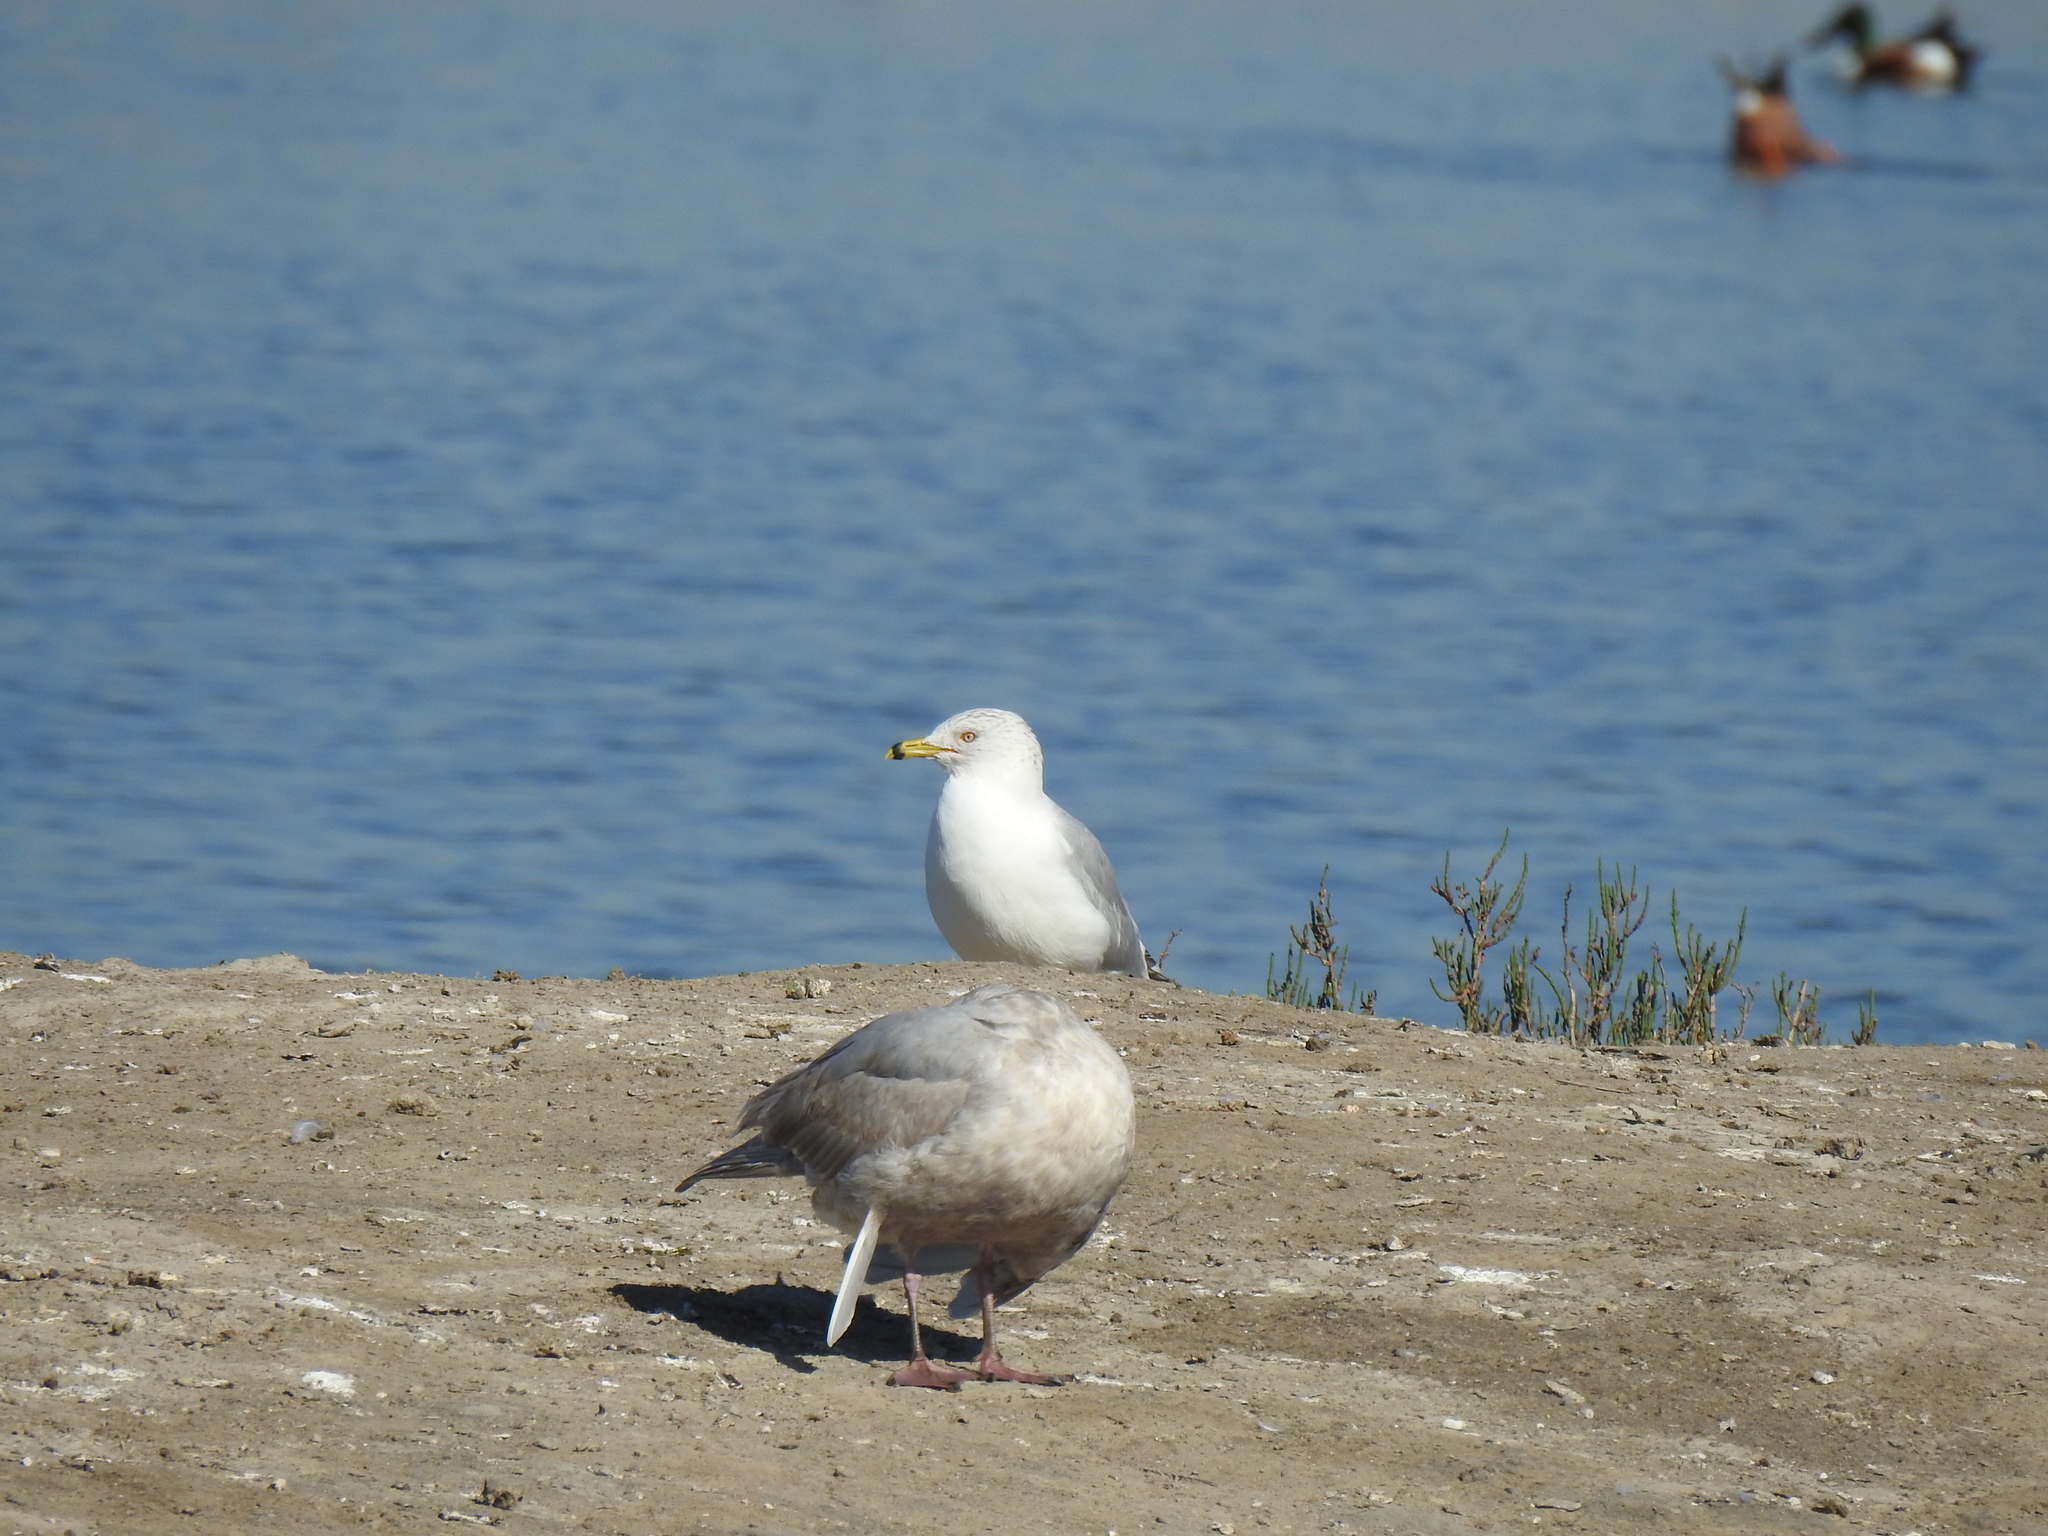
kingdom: Animalia
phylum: Chordata
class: Aves
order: Charadriiformes
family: Laridae
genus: Larus
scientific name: Larus delawarensis
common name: Ring-billed gull
